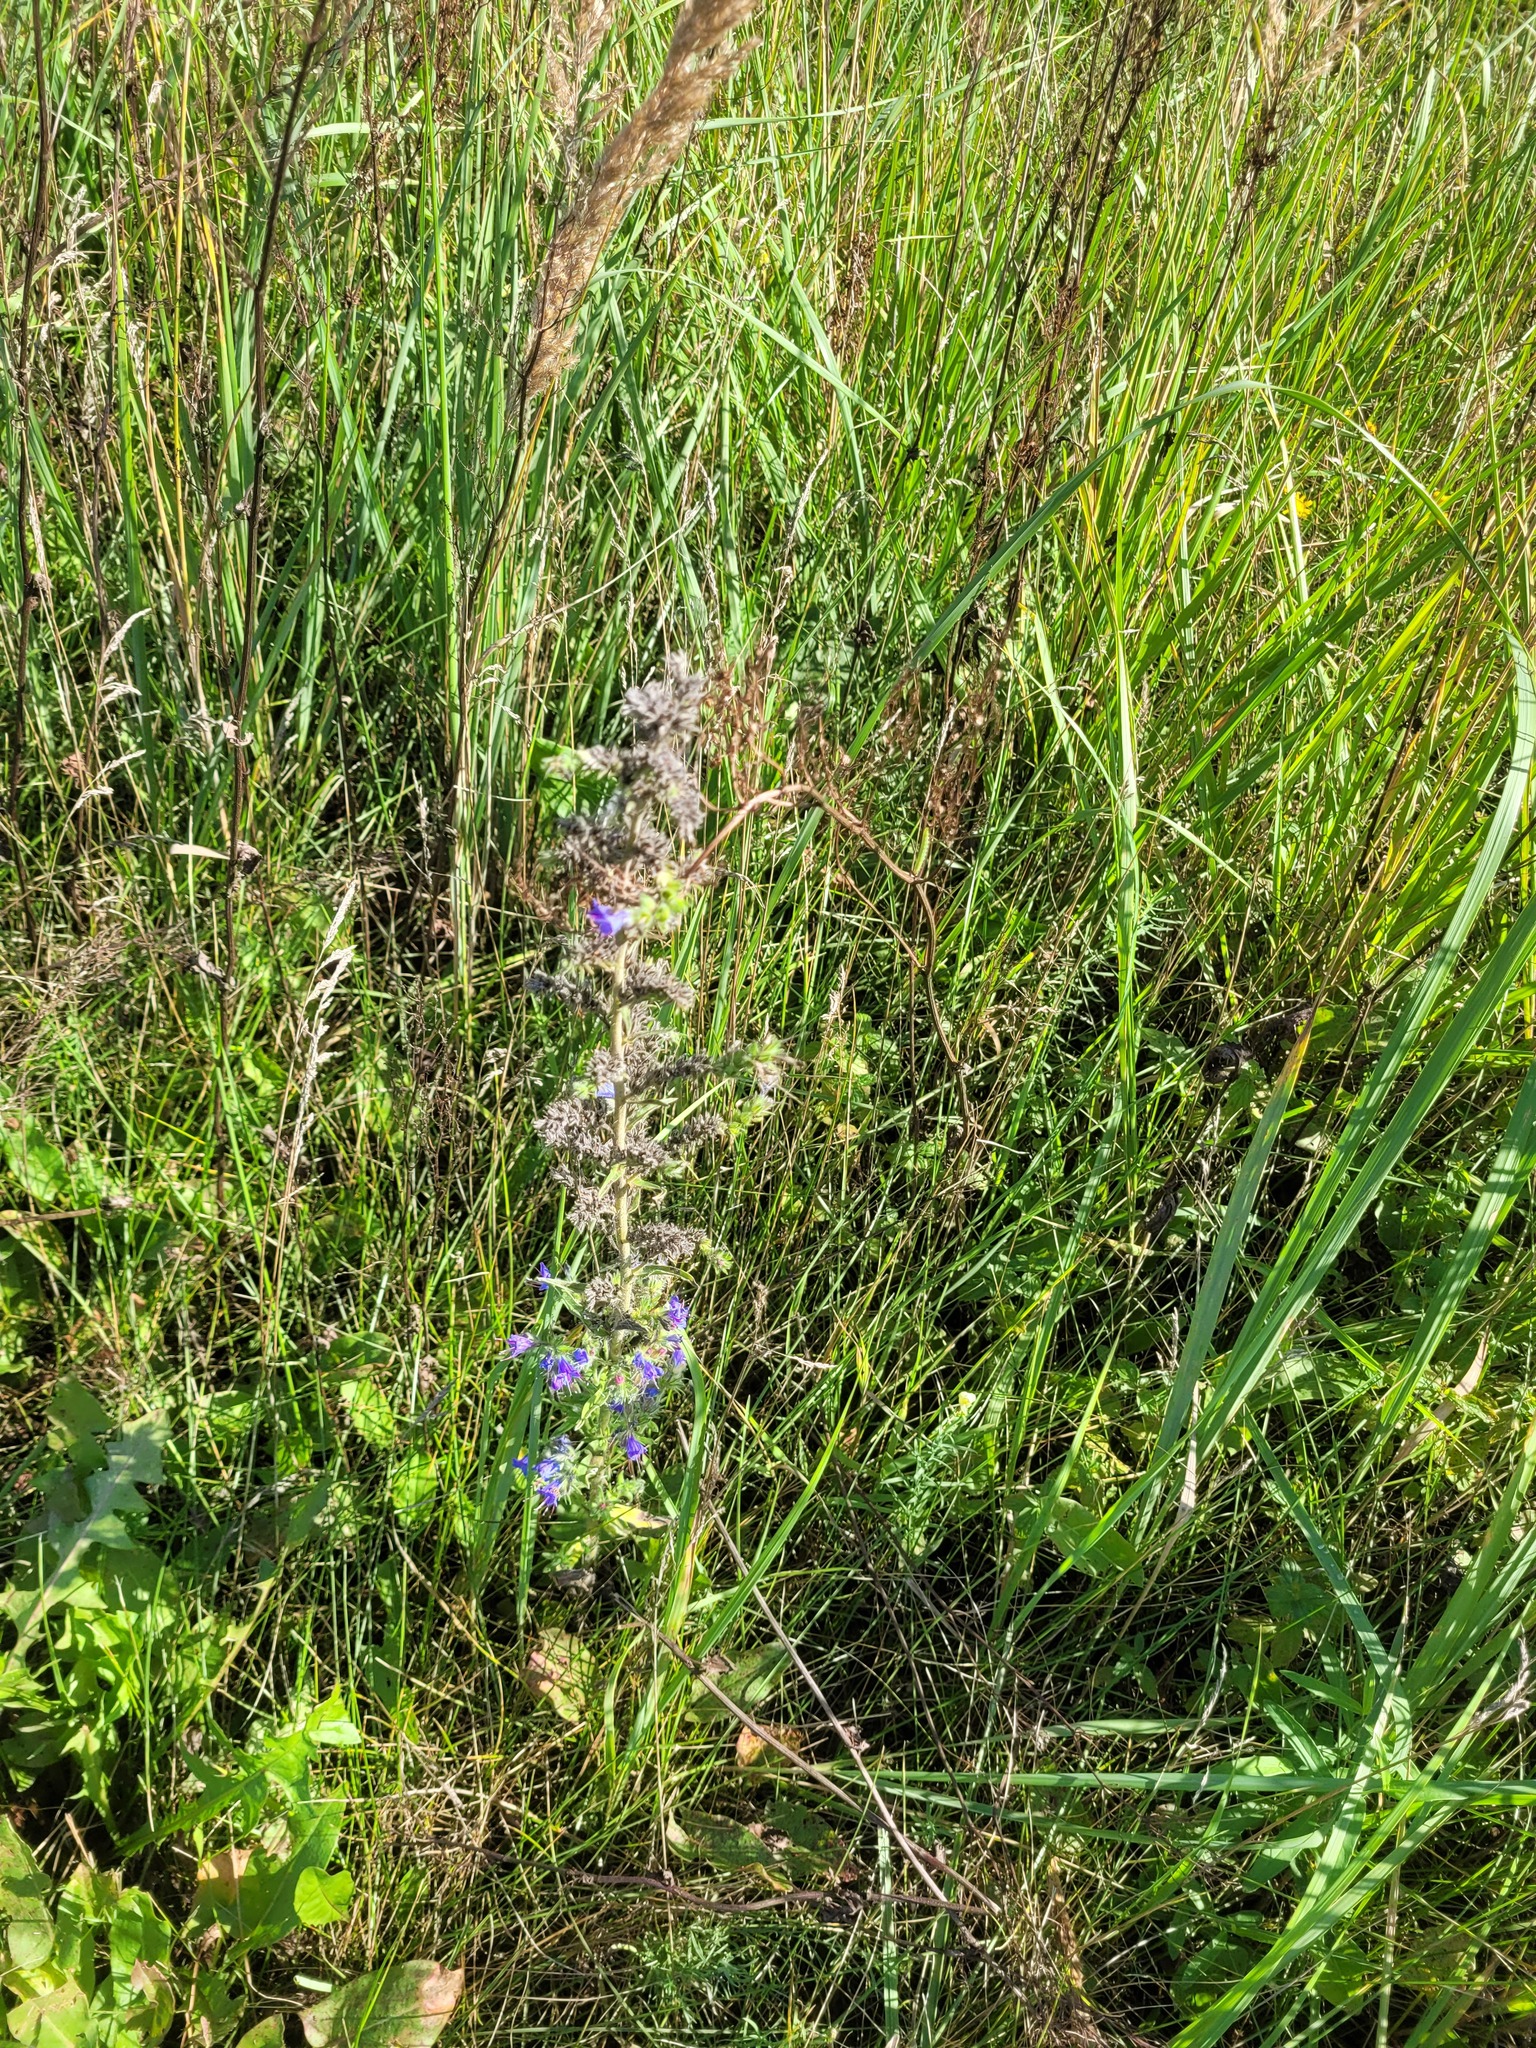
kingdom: Plantae
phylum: Tracheophyta
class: Magnoliopsida
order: Boraginales
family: Boraginaceae
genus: Echium
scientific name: Echium vulgare
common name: Common viper's bugloss
